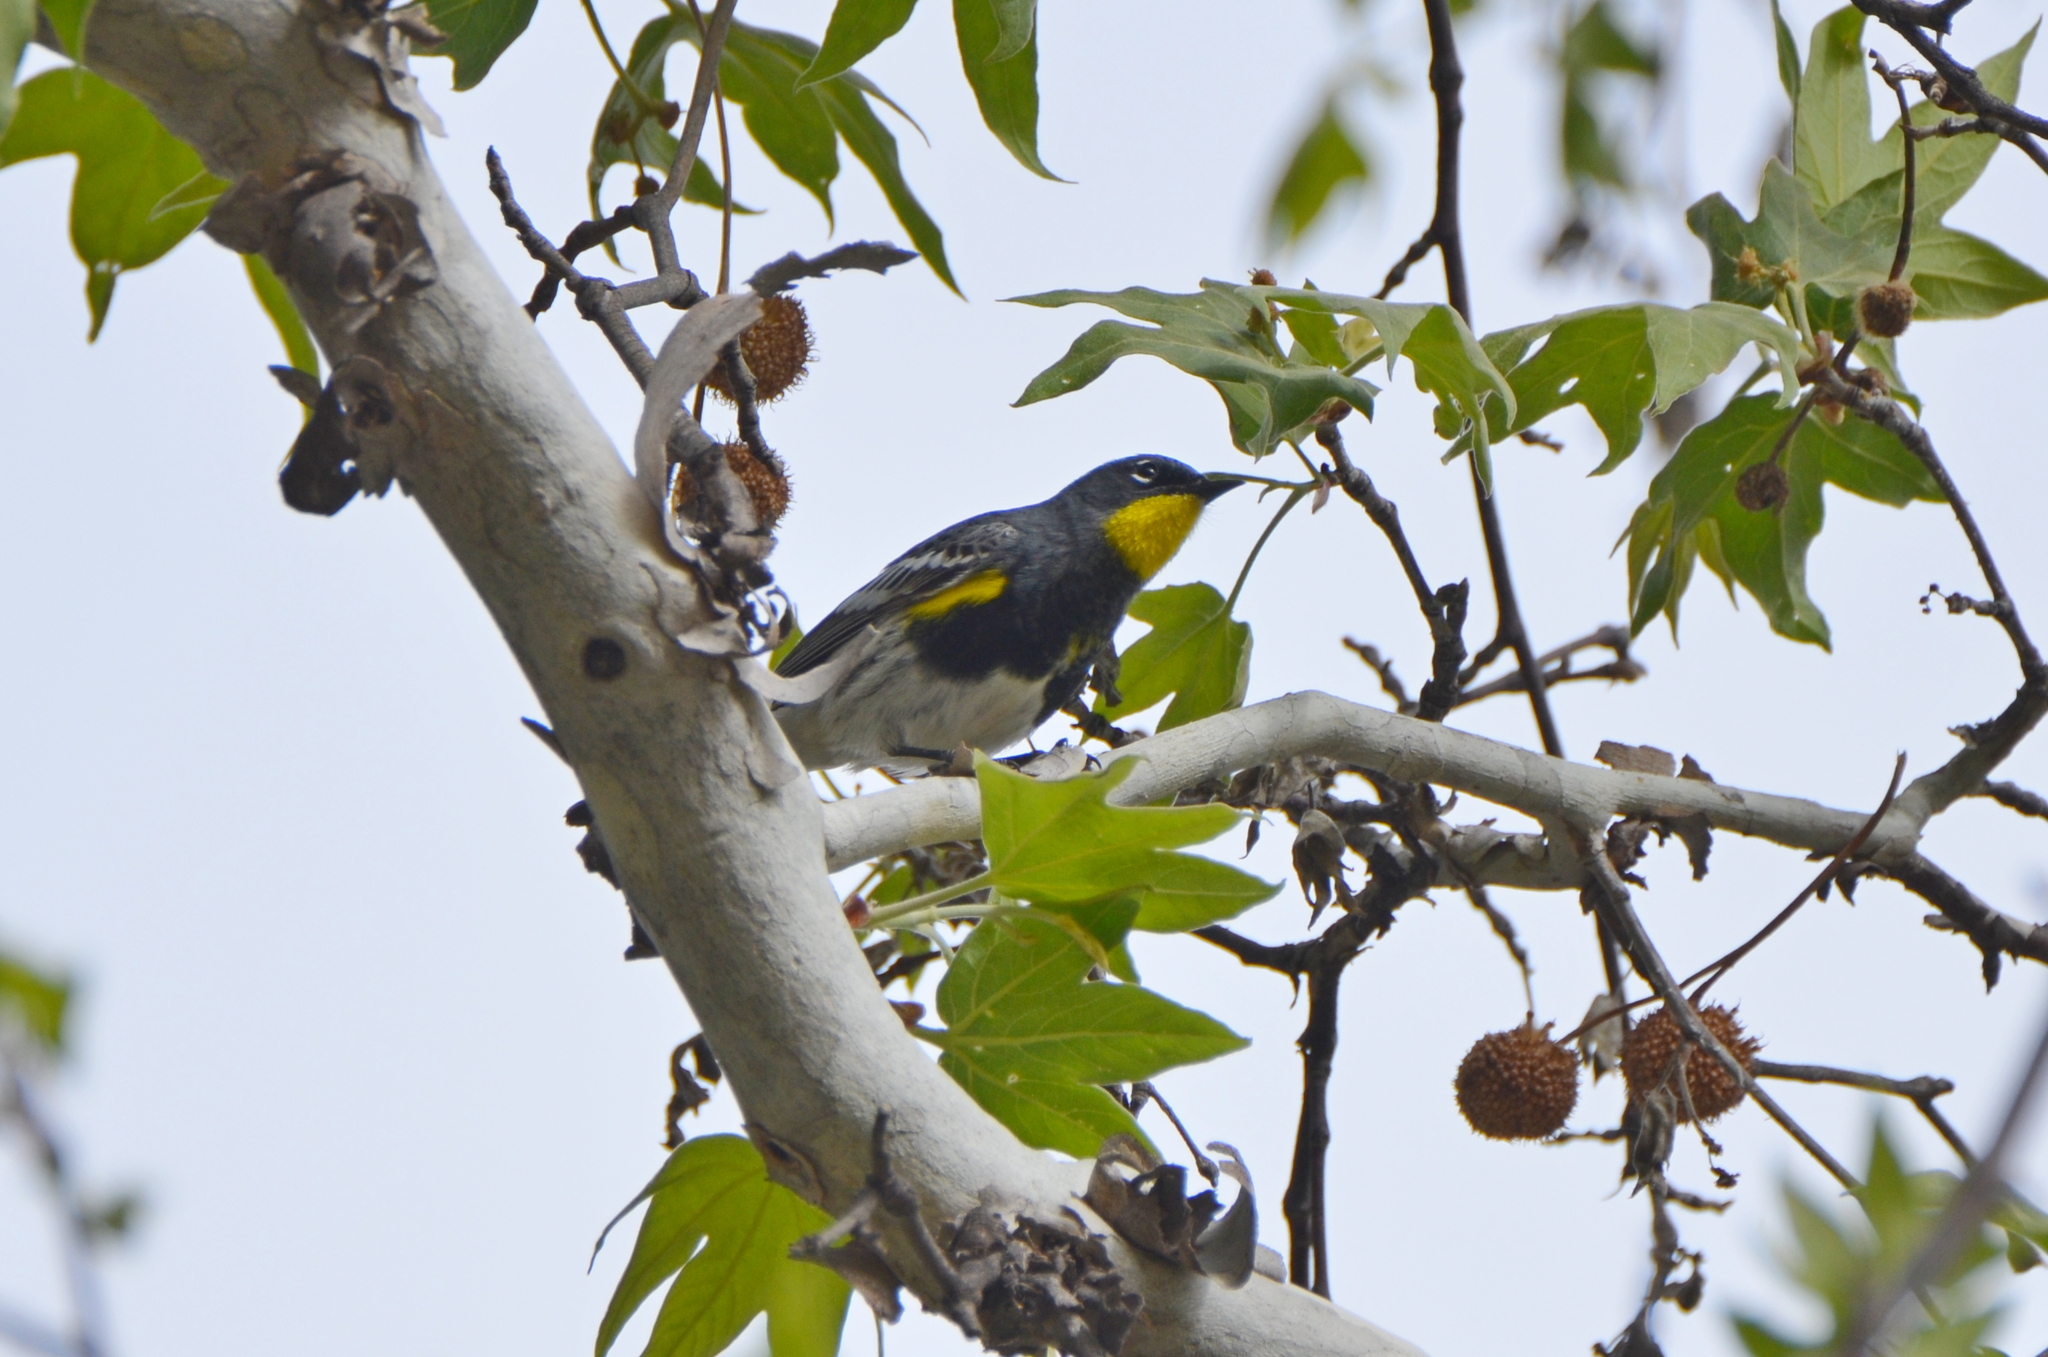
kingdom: Animalia
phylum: Chordata
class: Aves
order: Passeriformes
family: Parulidae
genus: Setophaga
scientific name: Setophaga auduboni
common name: Audubon's warbler
